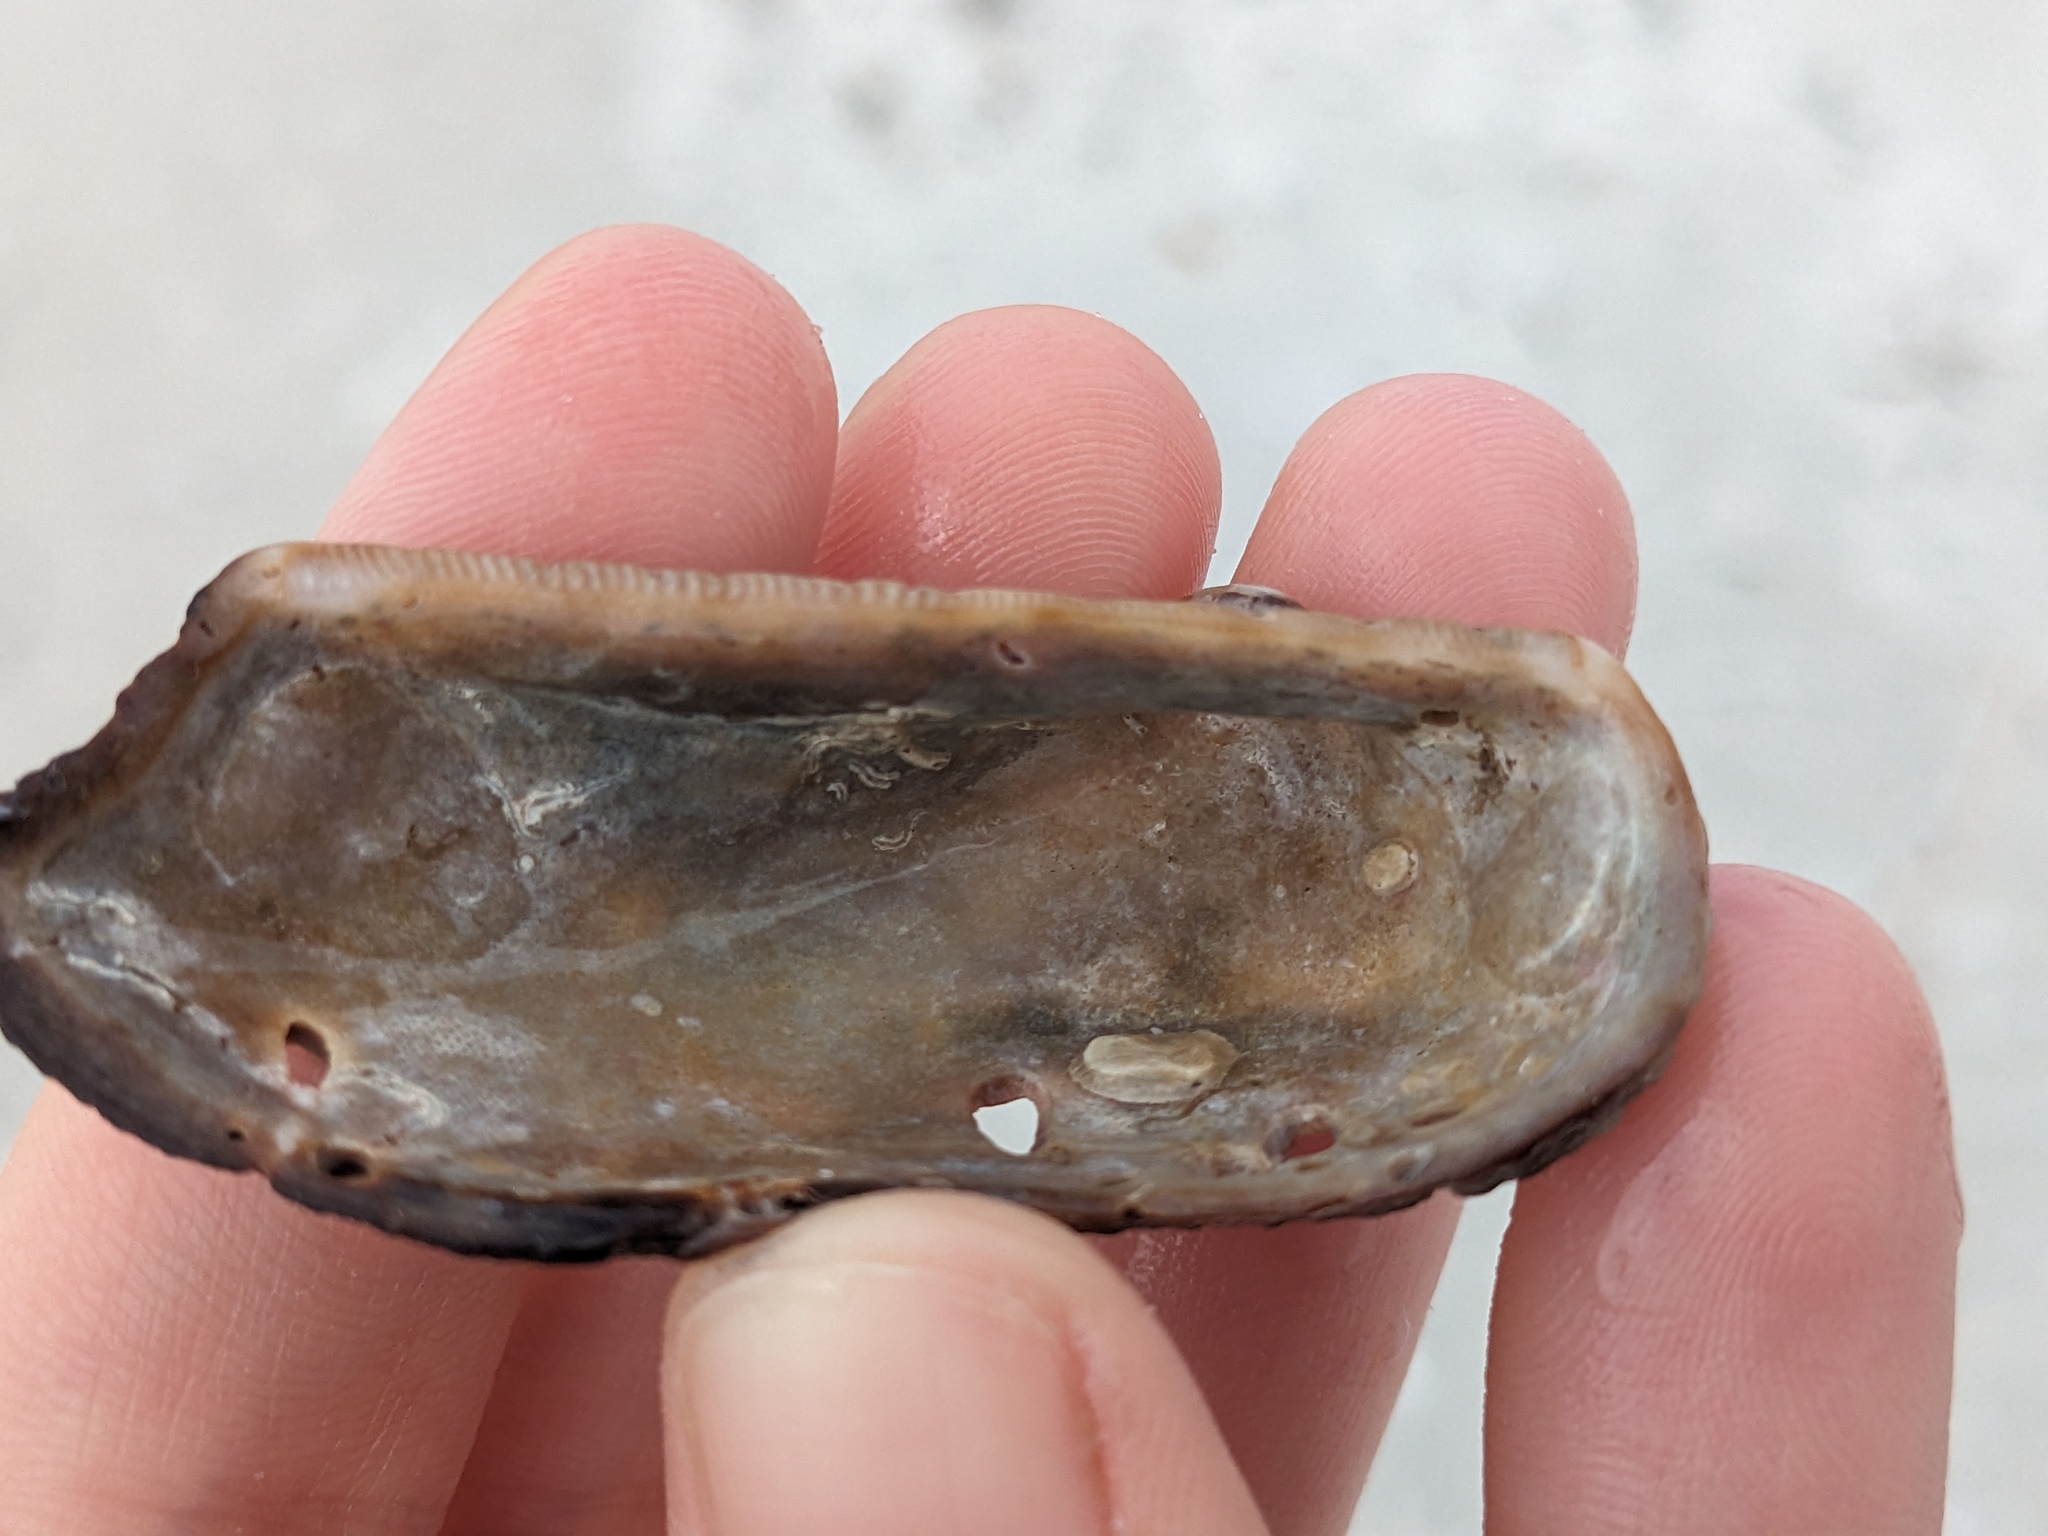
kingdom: Animalia
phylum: Mollusca
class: Bivalvia
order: Arcida
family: Arcidae
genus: Lamarcka
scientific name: Lamarcka imbricata
